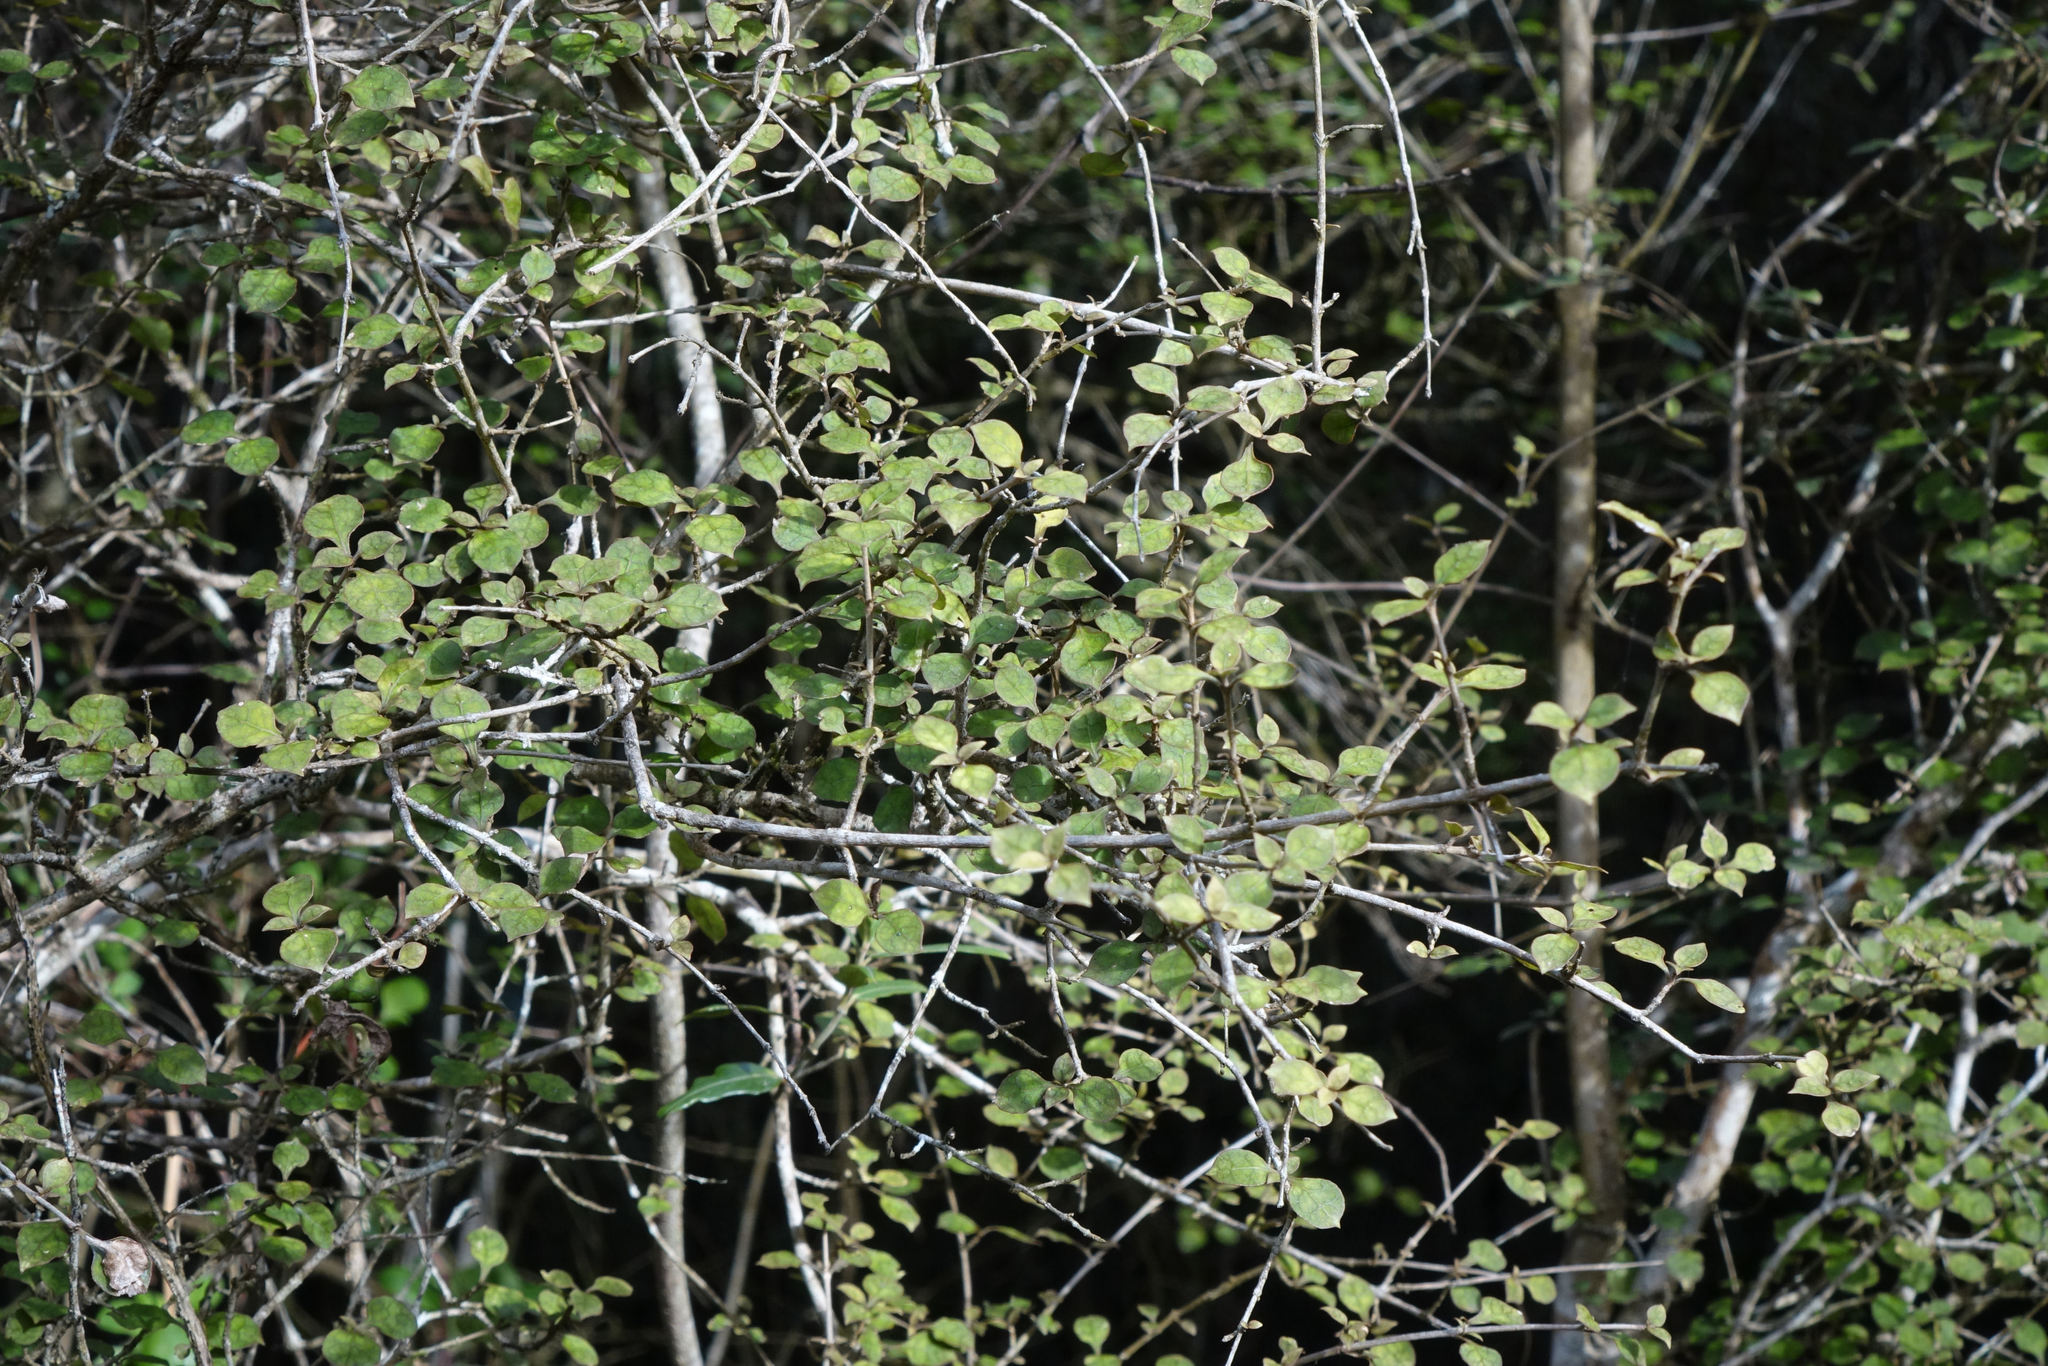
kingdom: Plantae
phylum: Tracheophyta
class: Magnoliopsida
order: Gentianales
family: Rubiaceae
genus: Coprosma
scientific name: Coprosma areolata
